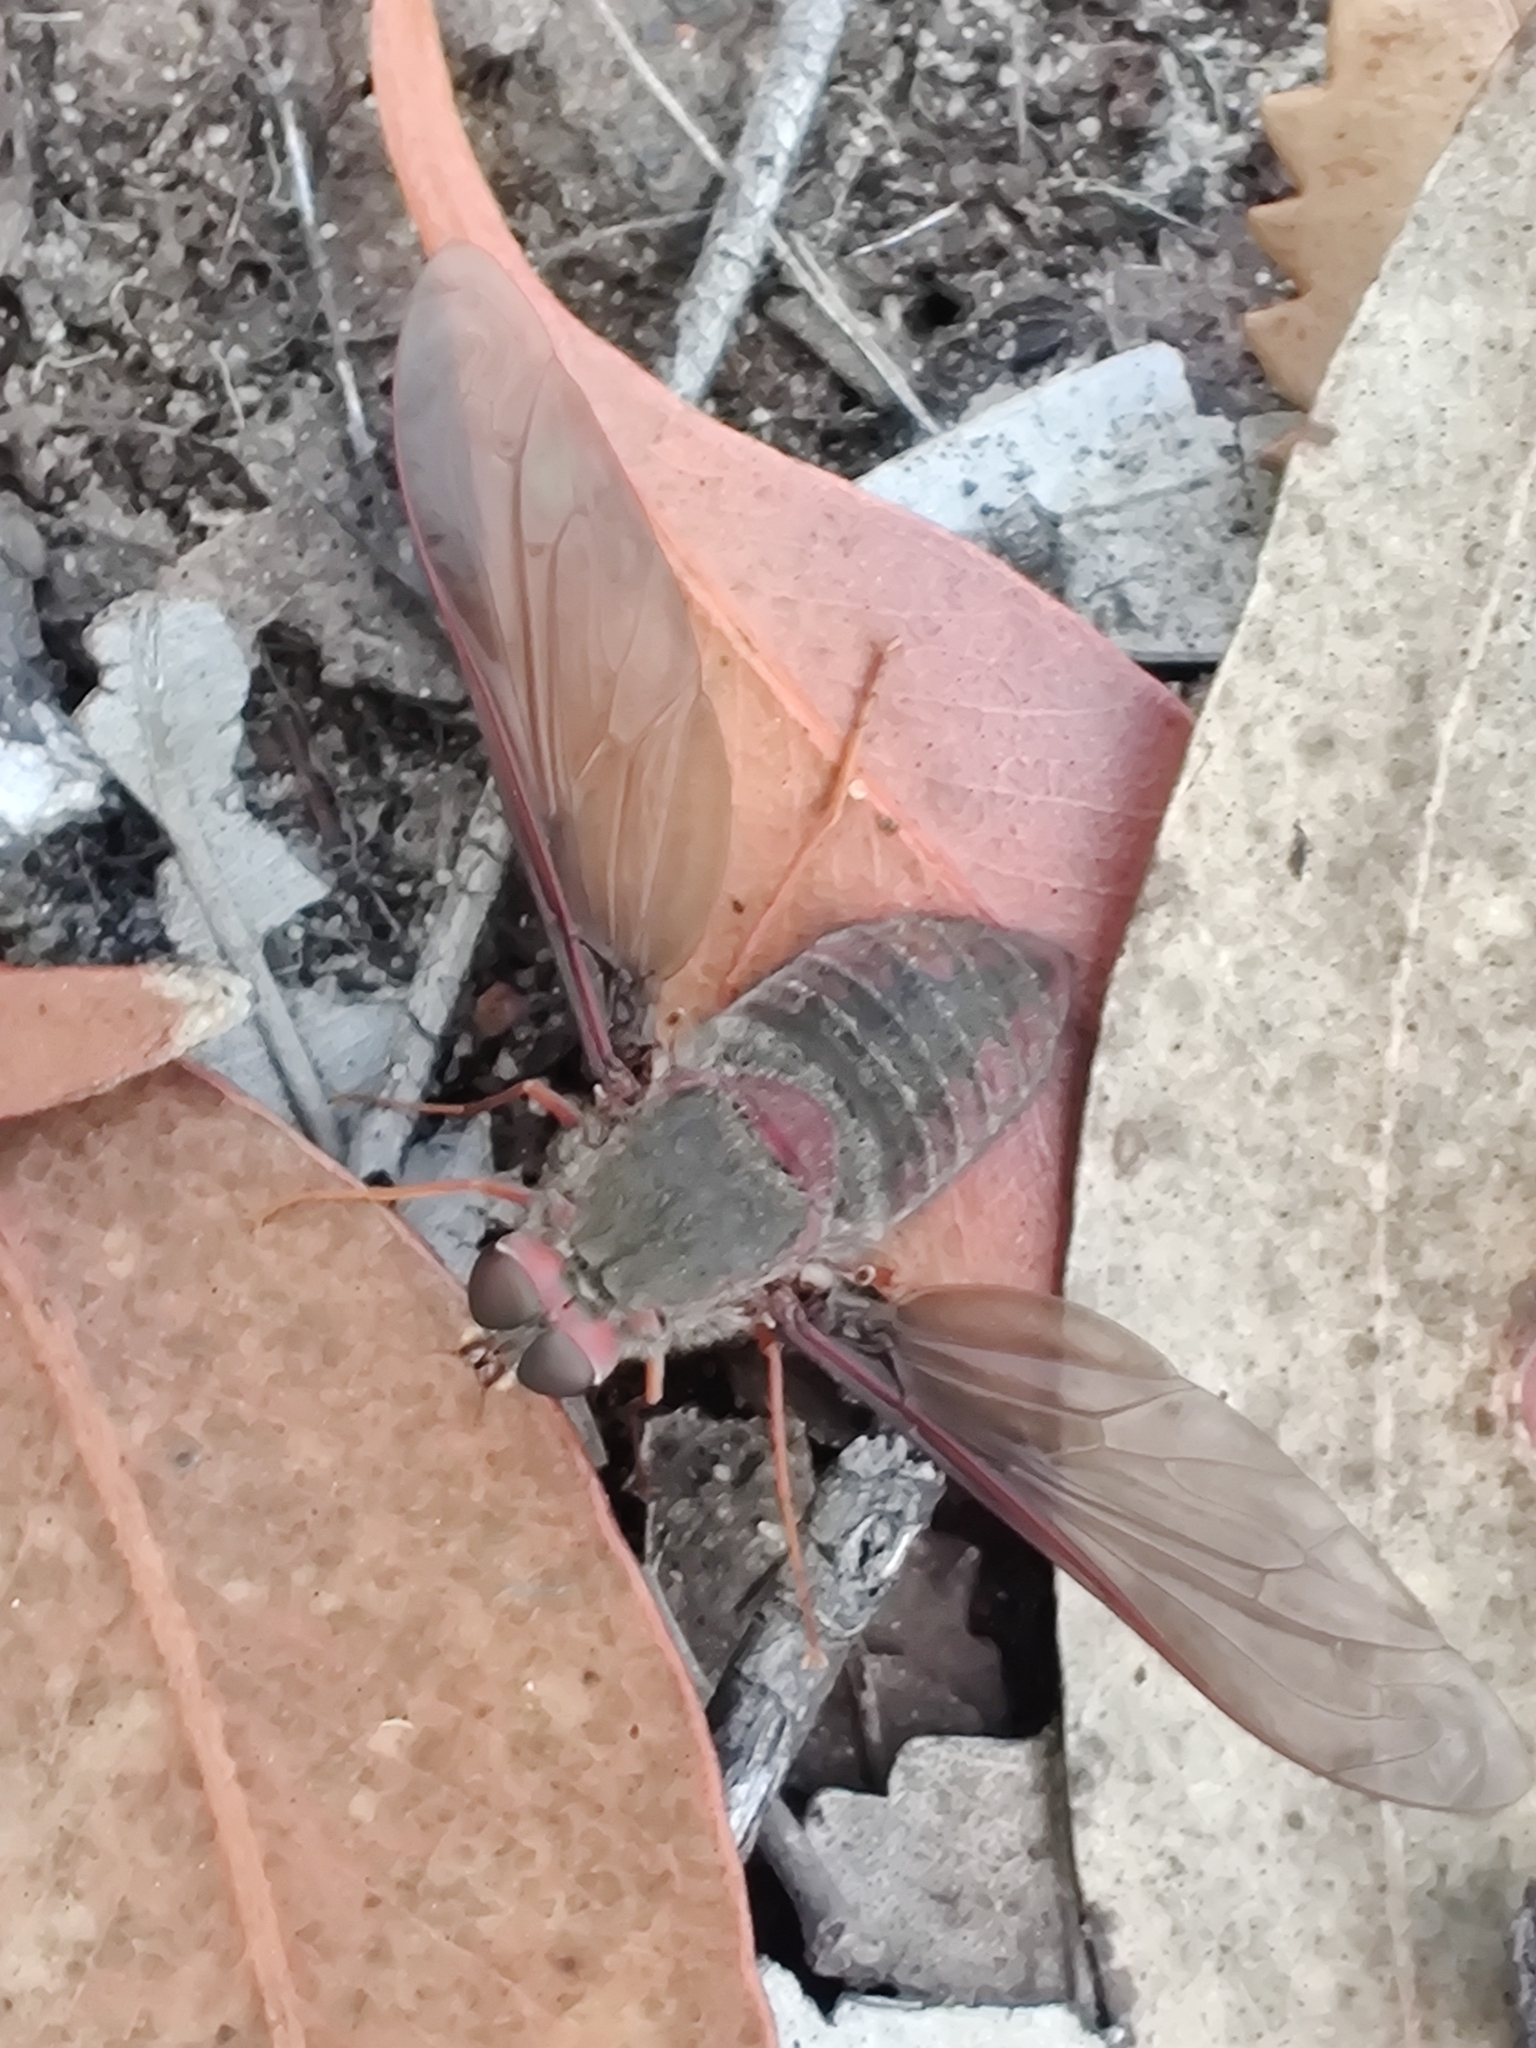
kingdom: Animalia
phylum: Arthropoda
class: Insecta
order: Diptera
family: Bombyliidae
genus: Comptosia
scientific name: Comptosia insignis
